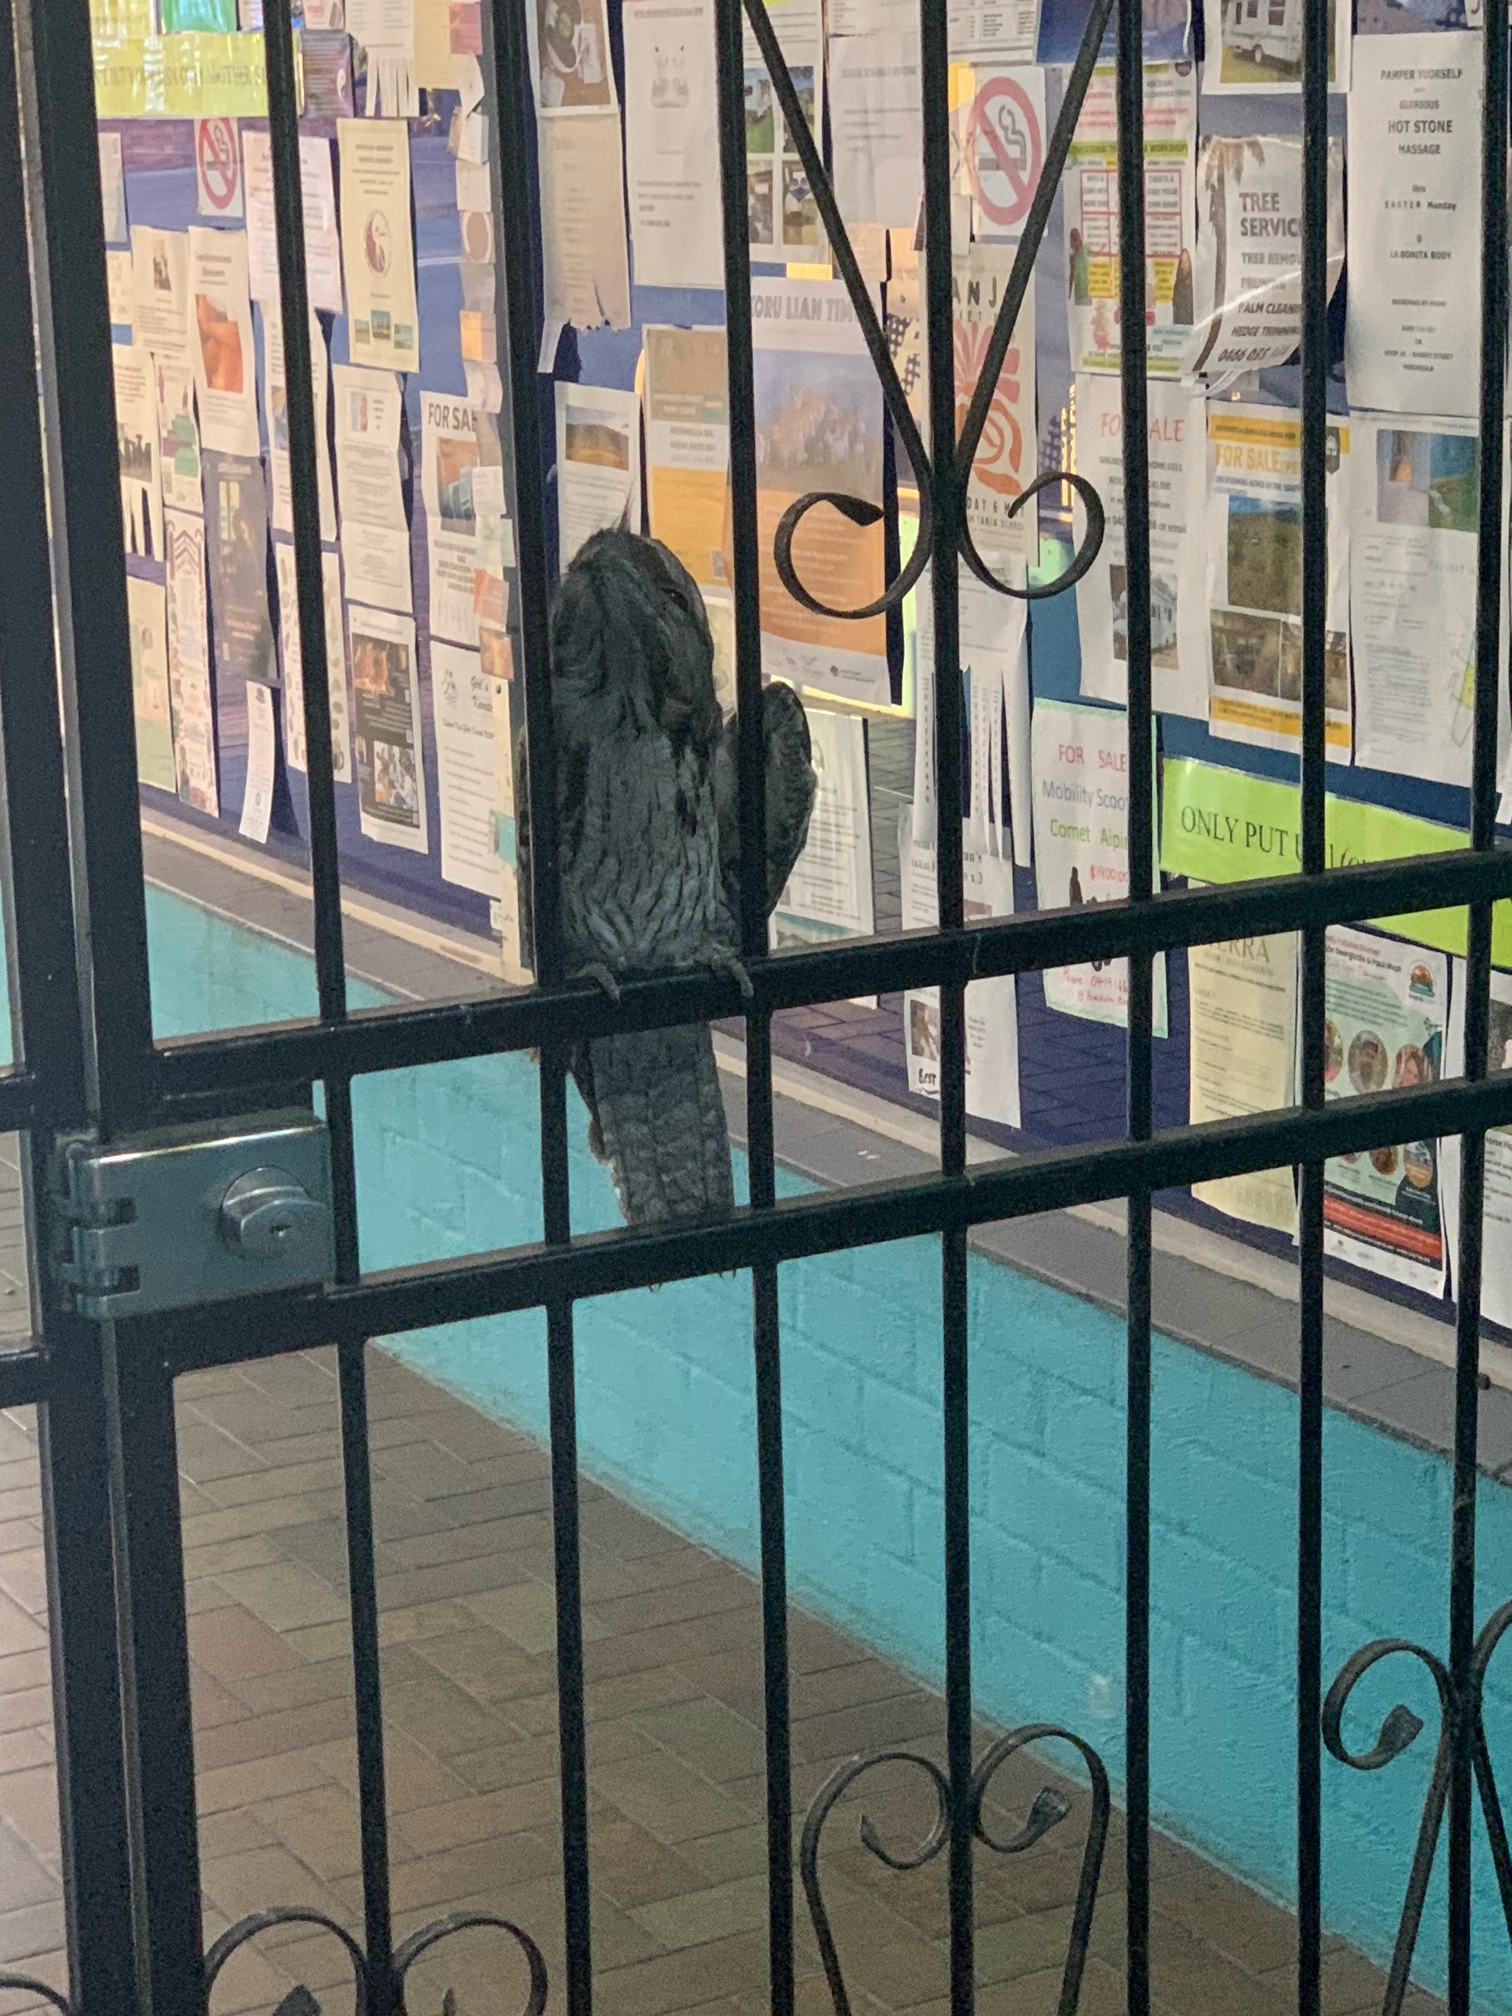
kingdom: Animalia
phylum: Chordata
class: Aves
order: Caprimulgiformes
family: Podargidae
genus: Podargus
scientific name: Podargus strigoides
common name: Tawny frogmouth
